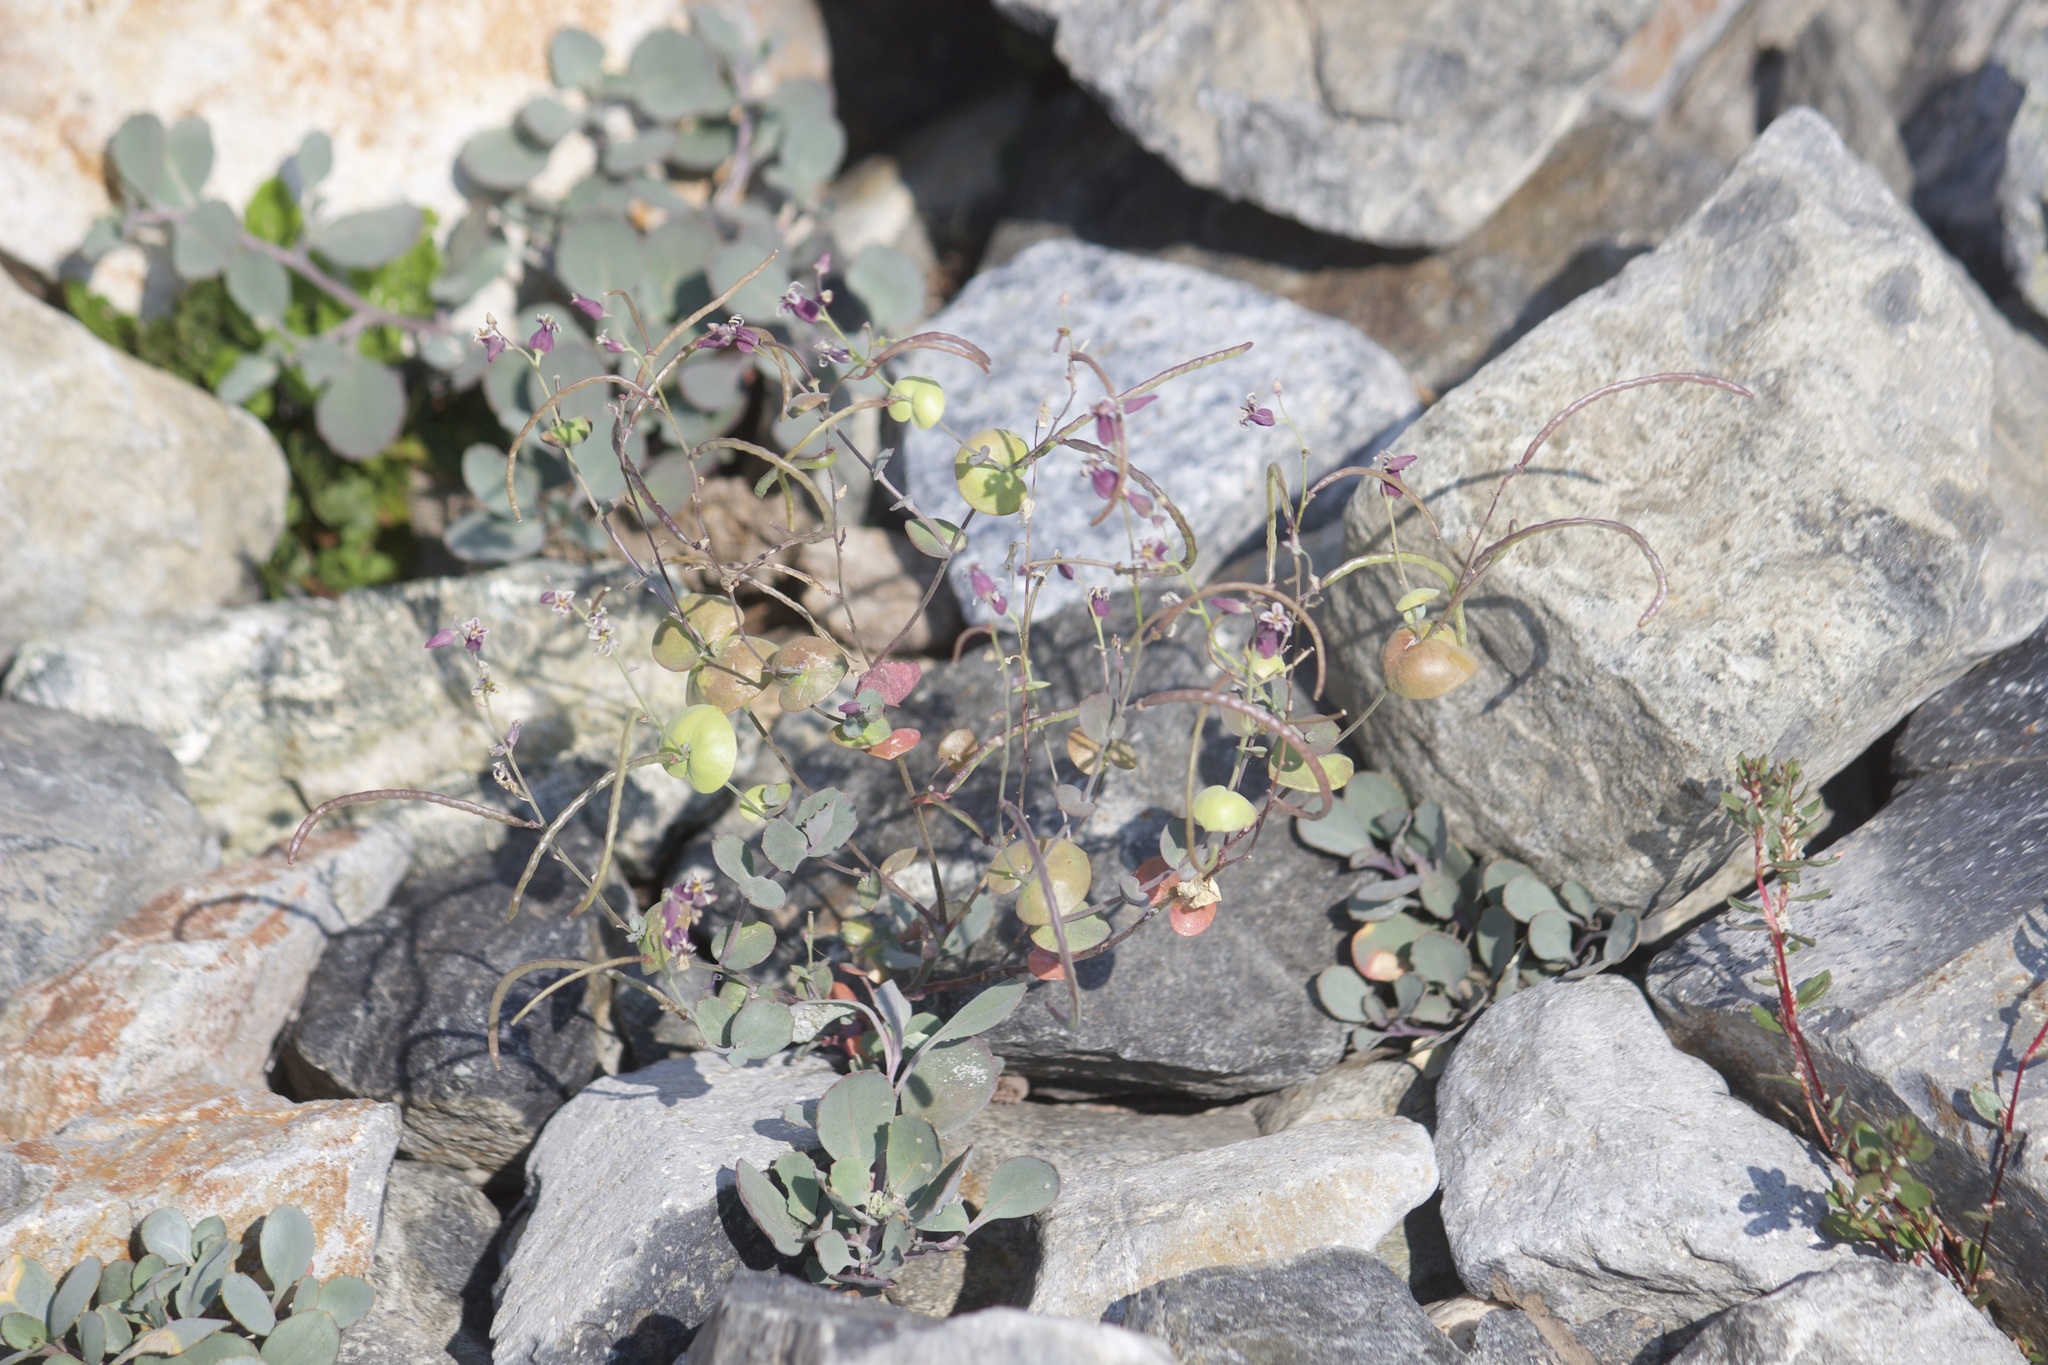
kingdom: Plantae
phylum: Tracheophyta
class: Magnoliopsida
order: Brassicales
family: Brassicaceae
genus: Streptanthus
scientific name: Streptanthus tortuosus
